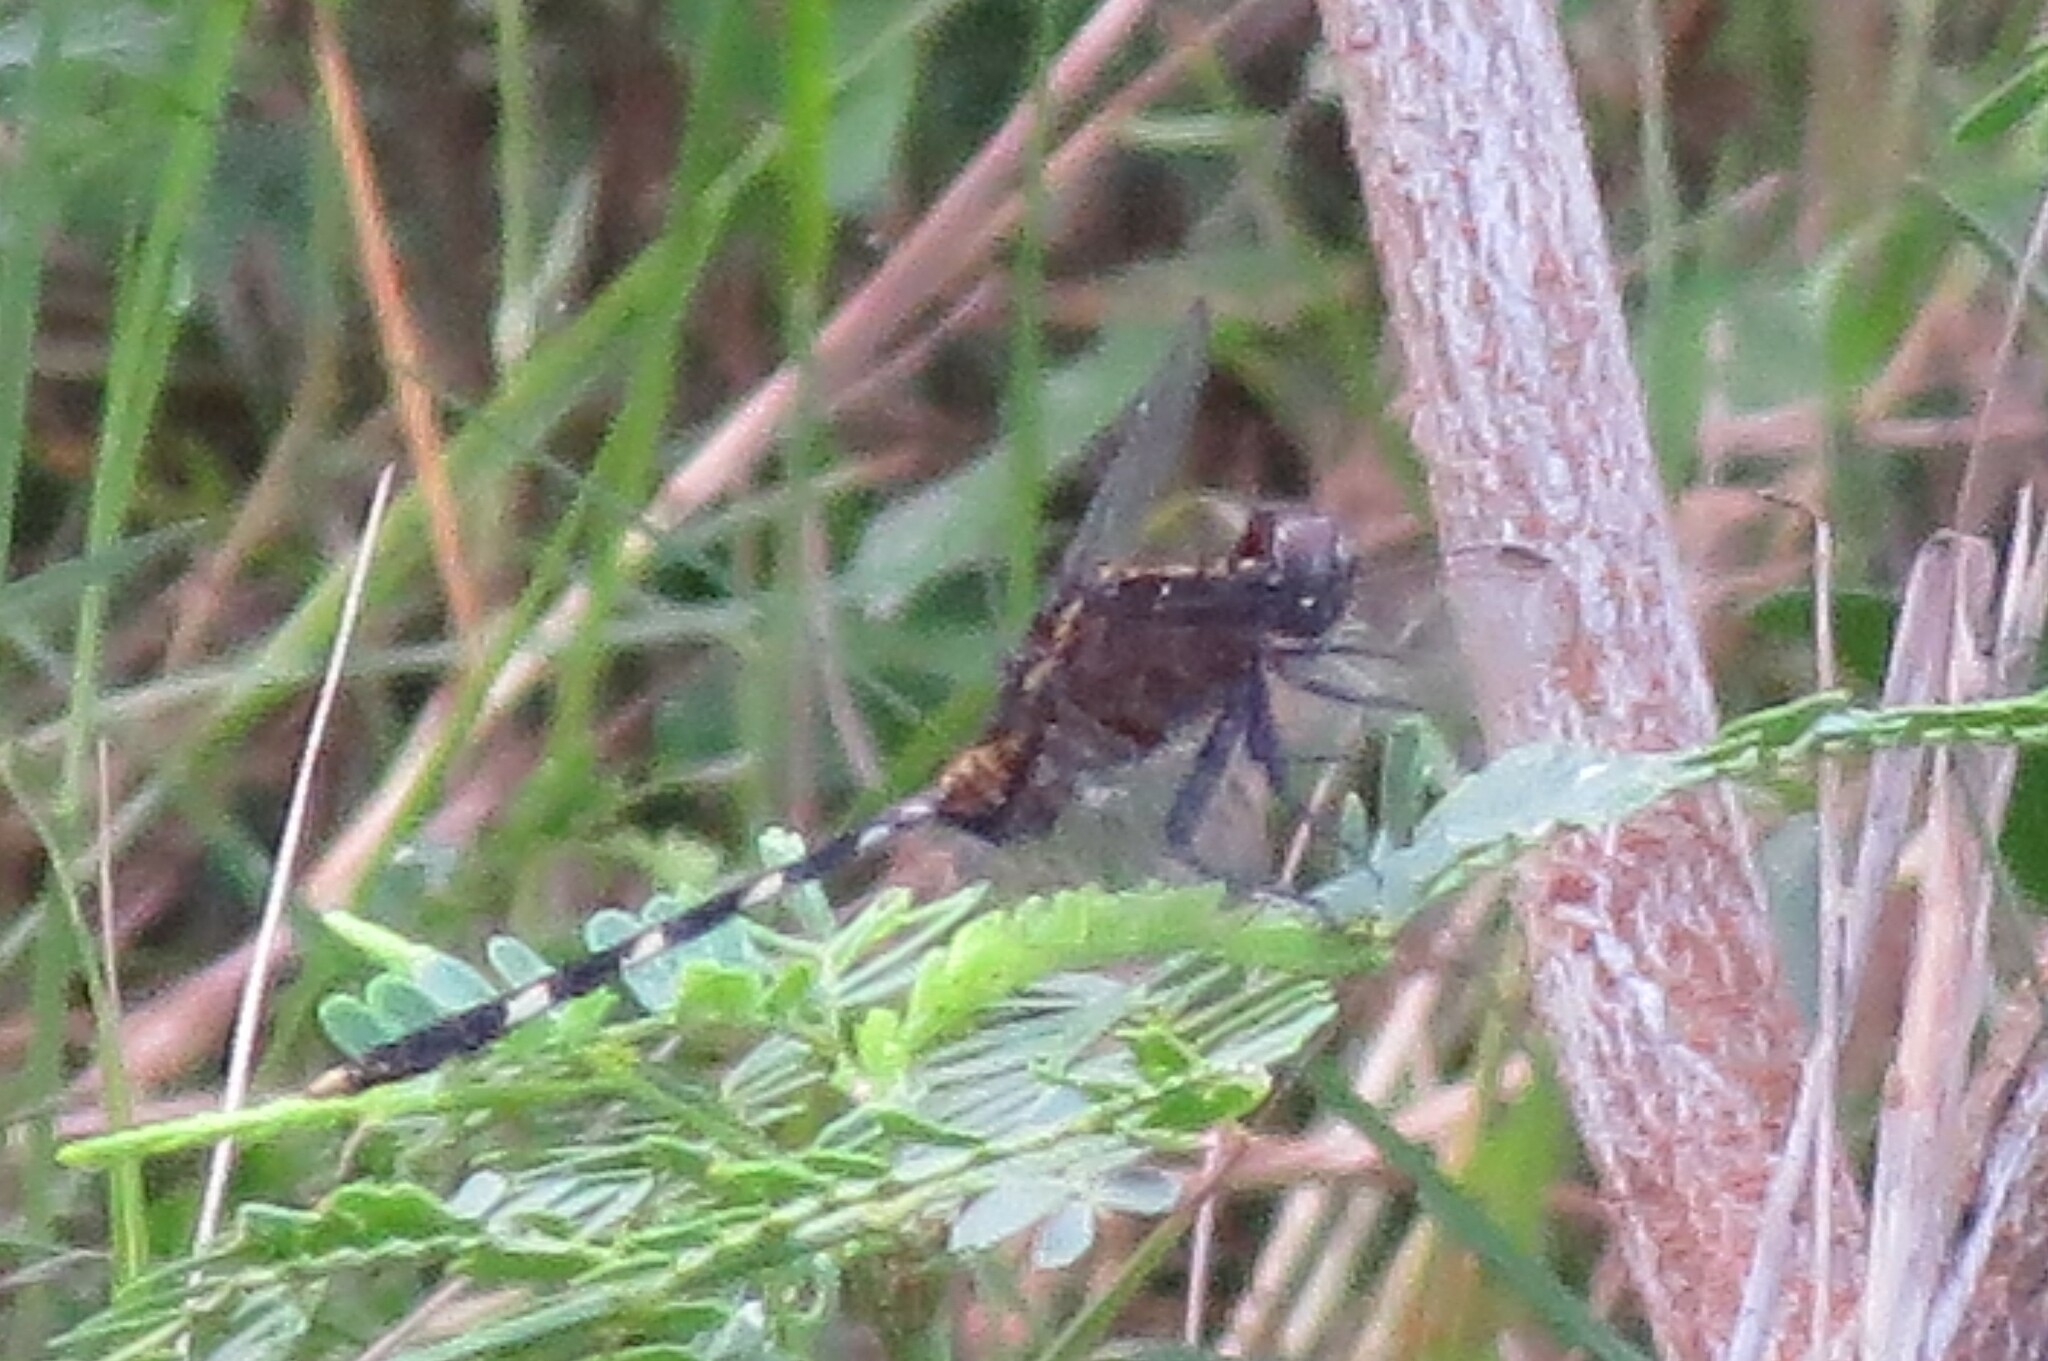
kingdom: Animalia
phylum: Arthropoda
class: Insecta
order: Odonata
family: Libellulidae
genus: Erythemis
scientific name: Erythemis plebeja
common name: Pin-tailed pondhawk
